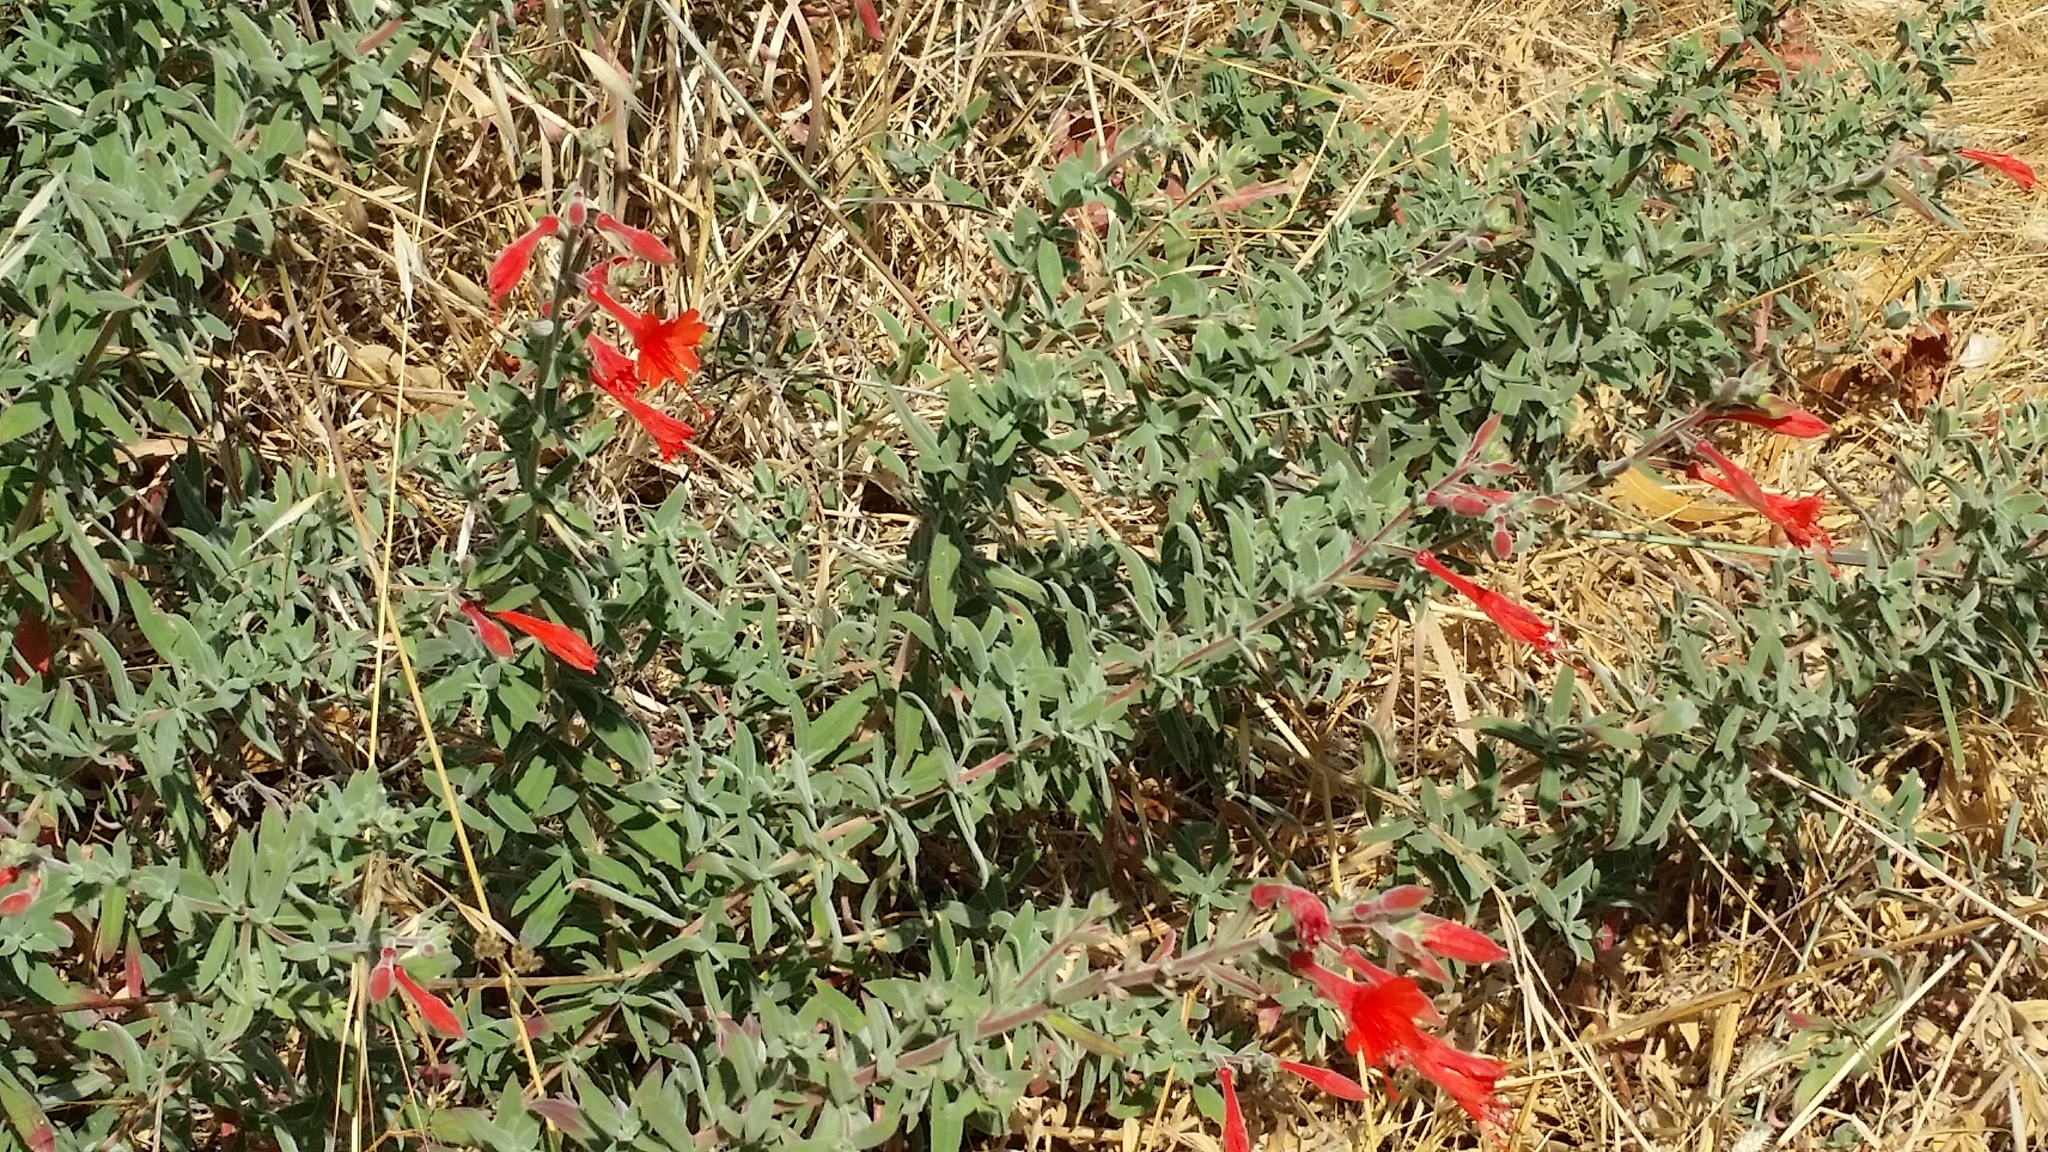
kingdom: Plantae
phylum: Tracheophyta
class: Magnoliopsida
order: Myrtales
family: Onagraceae
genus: Epilobium
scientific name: Epilobium canum
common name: California-fuchsia
